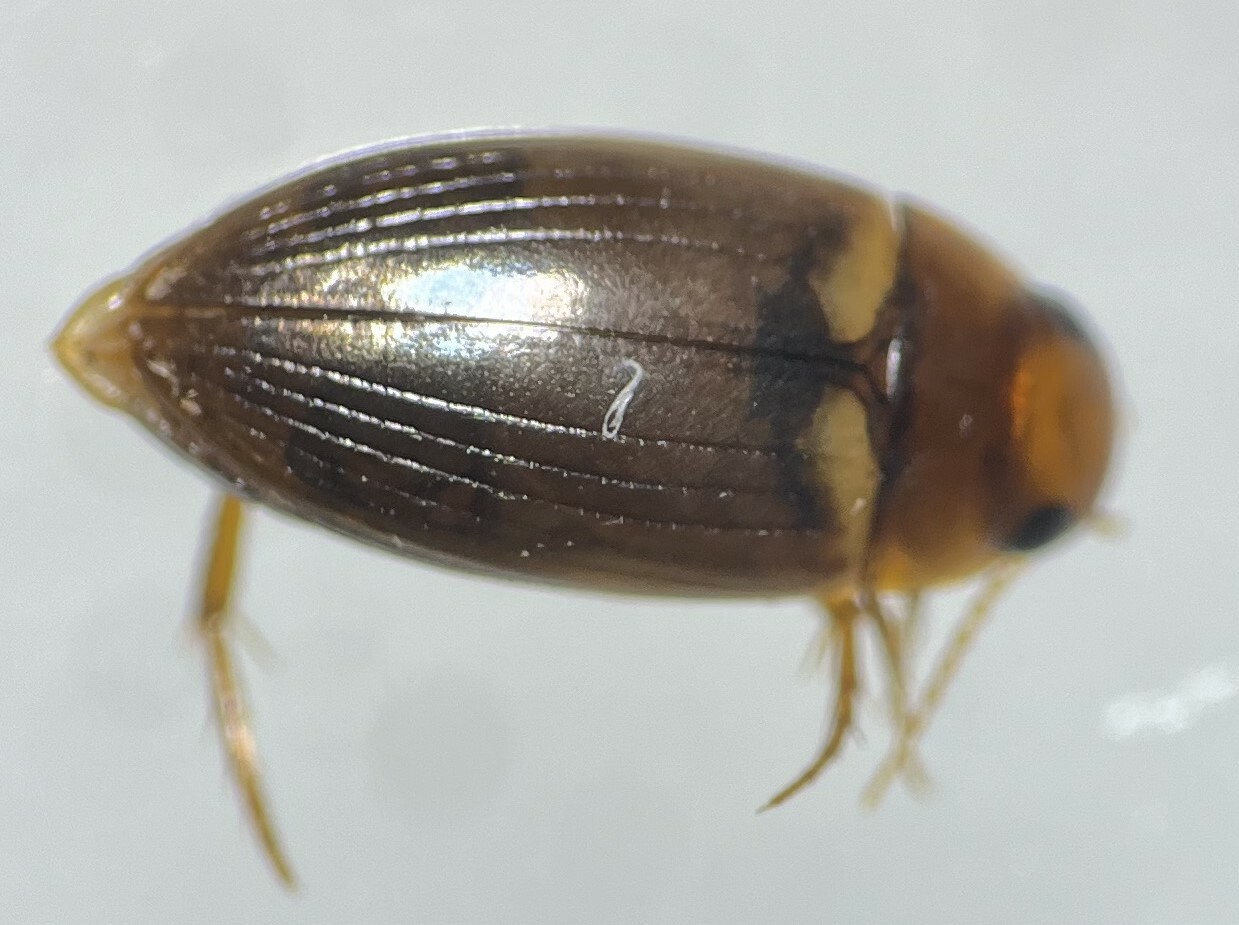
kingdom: Animalia
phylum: Arthropoda
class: Insecta
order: Coleoptera
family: Dytiscidae
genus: Copelatus
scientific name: Copelatus debilis
